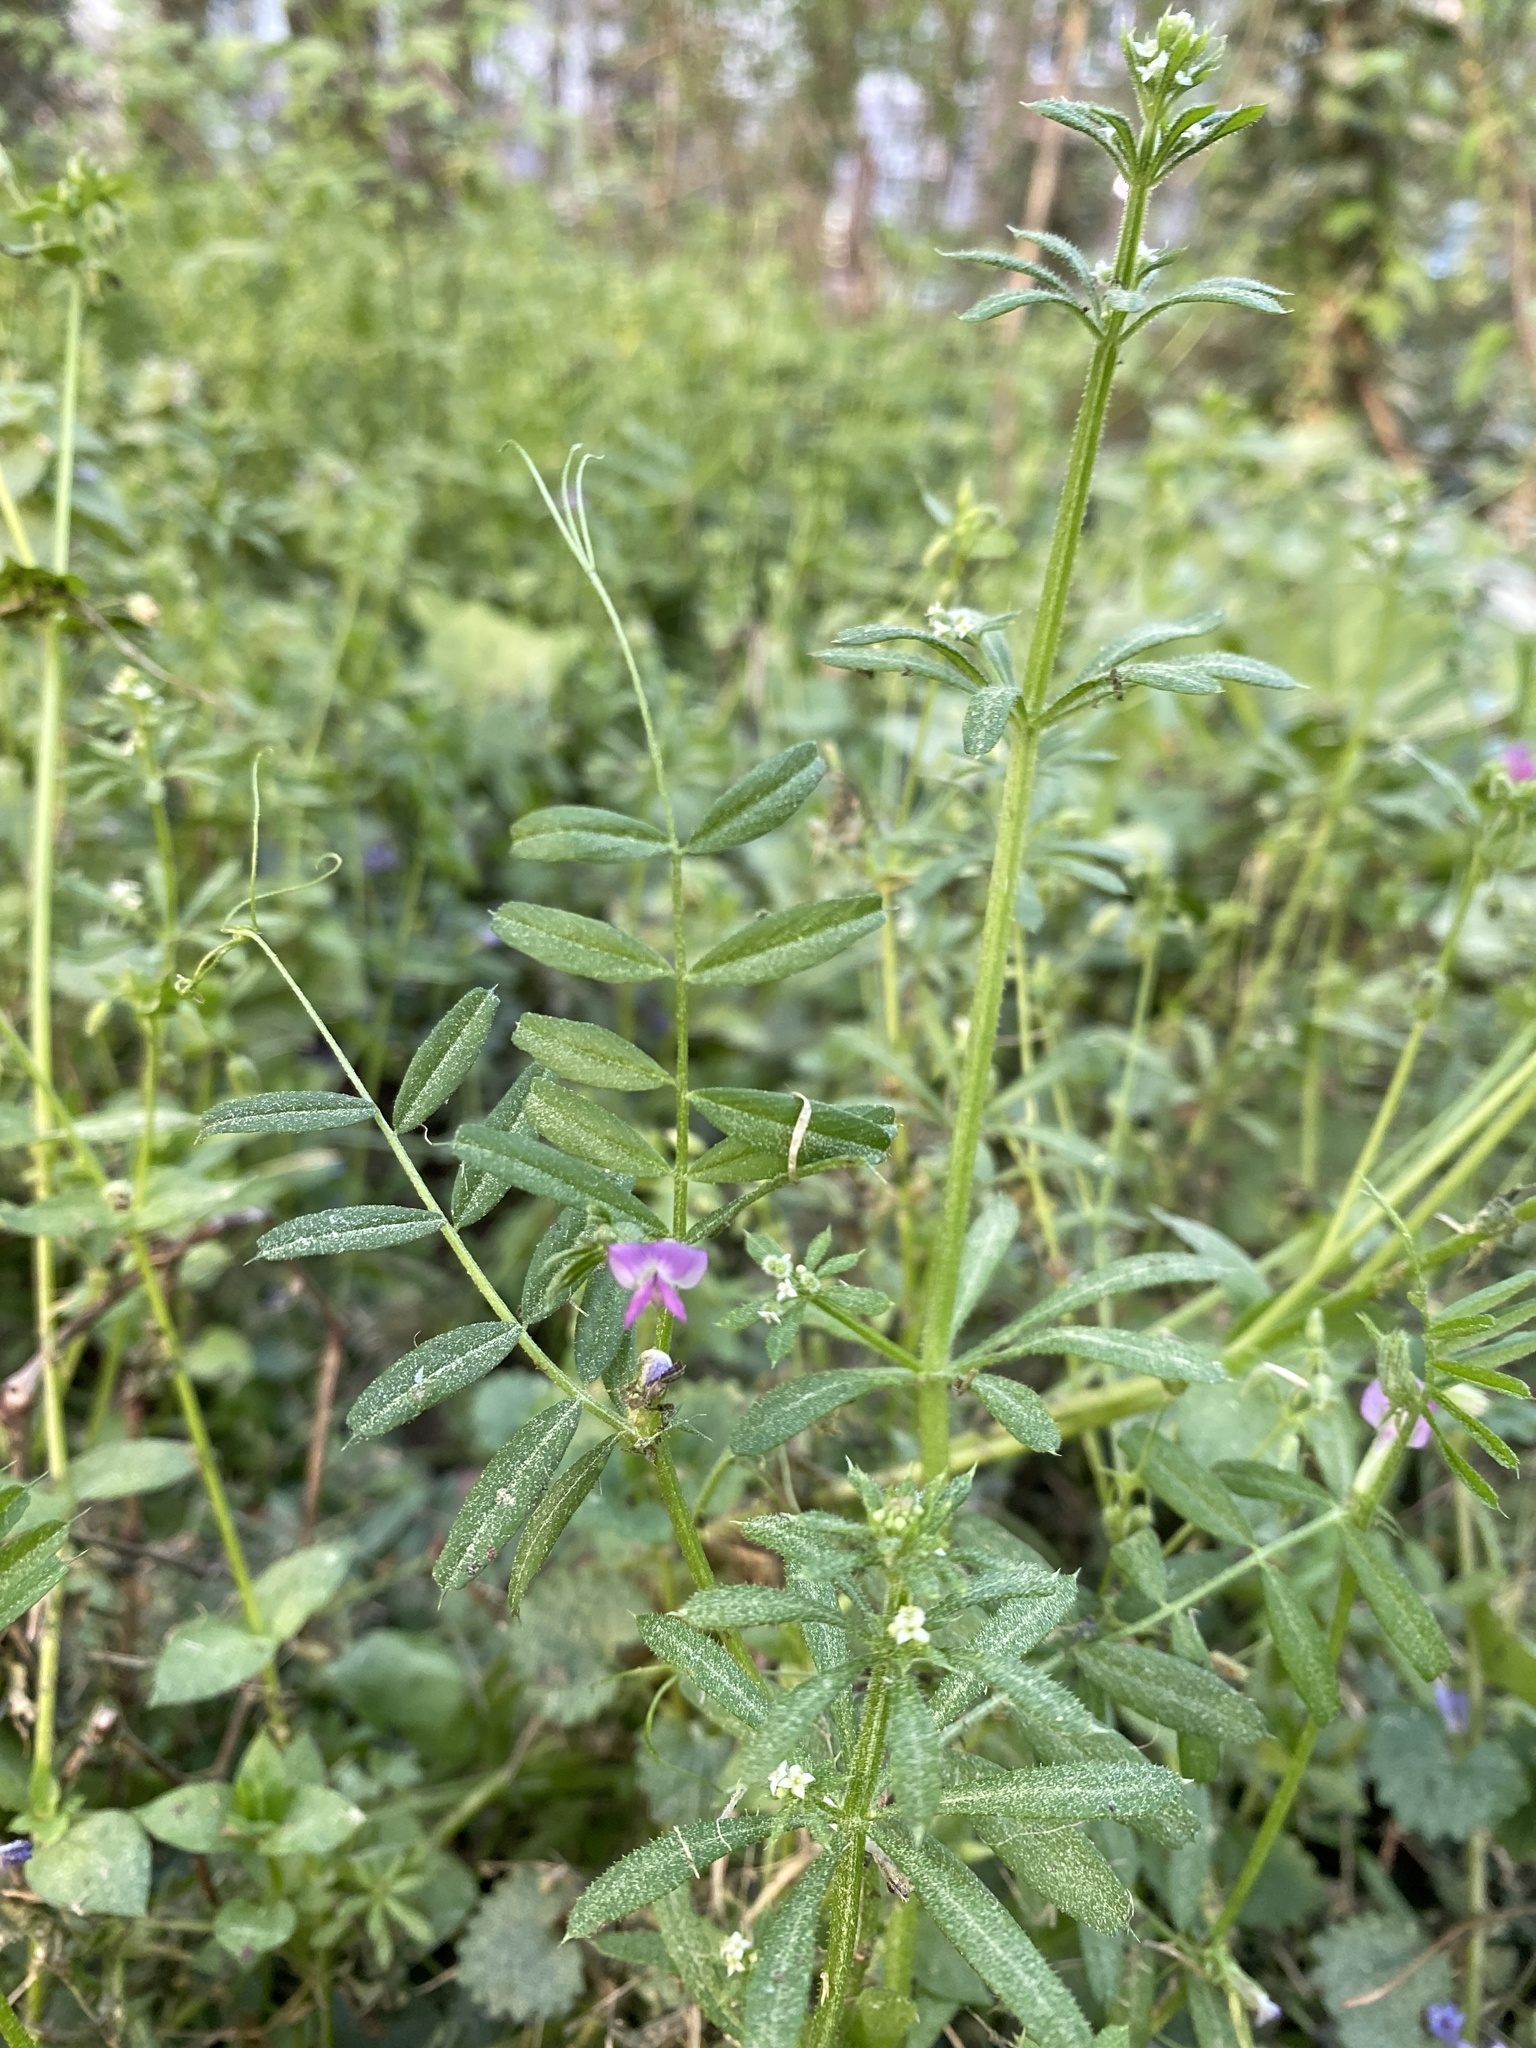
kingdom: Plantae
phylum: Tracheophyta
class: Magnoliopsida
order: Fabales
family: Fabaceae
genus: Vicia
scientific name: Vicia sativa
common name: Garden vetch
